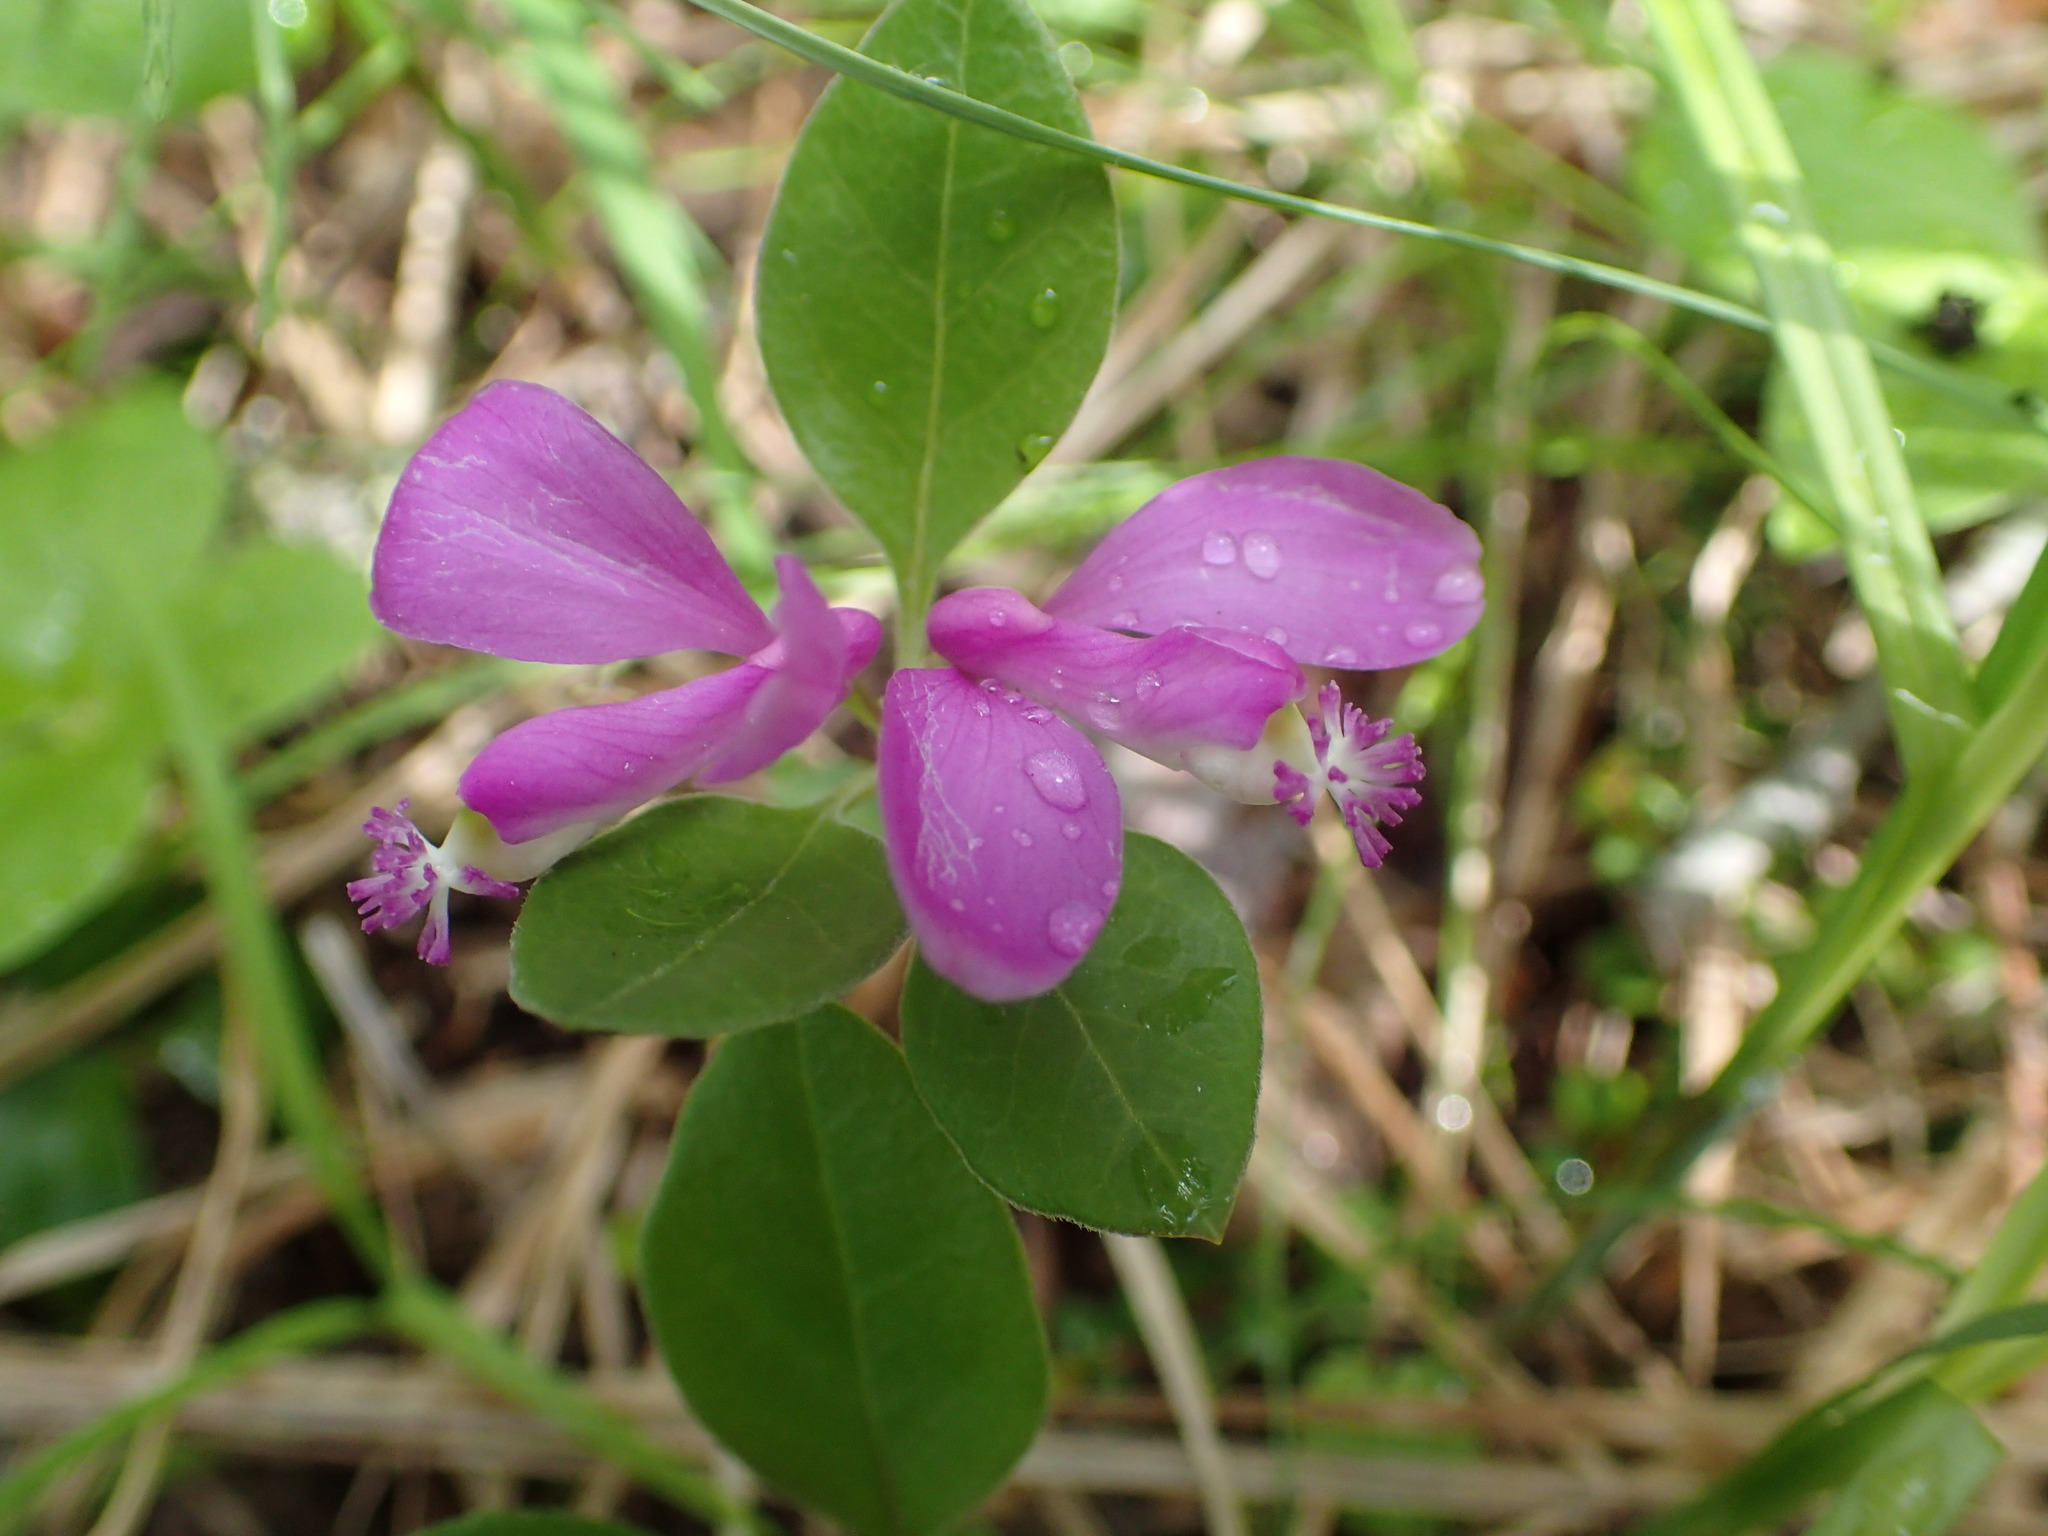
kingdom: Plantae
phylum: Tracheophyta
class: Magnoliopsida
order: Fabales
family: Polygalaceae
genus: Polygaloides
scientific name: Polygaloides paucifolia
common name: Bird-on-the-wing
